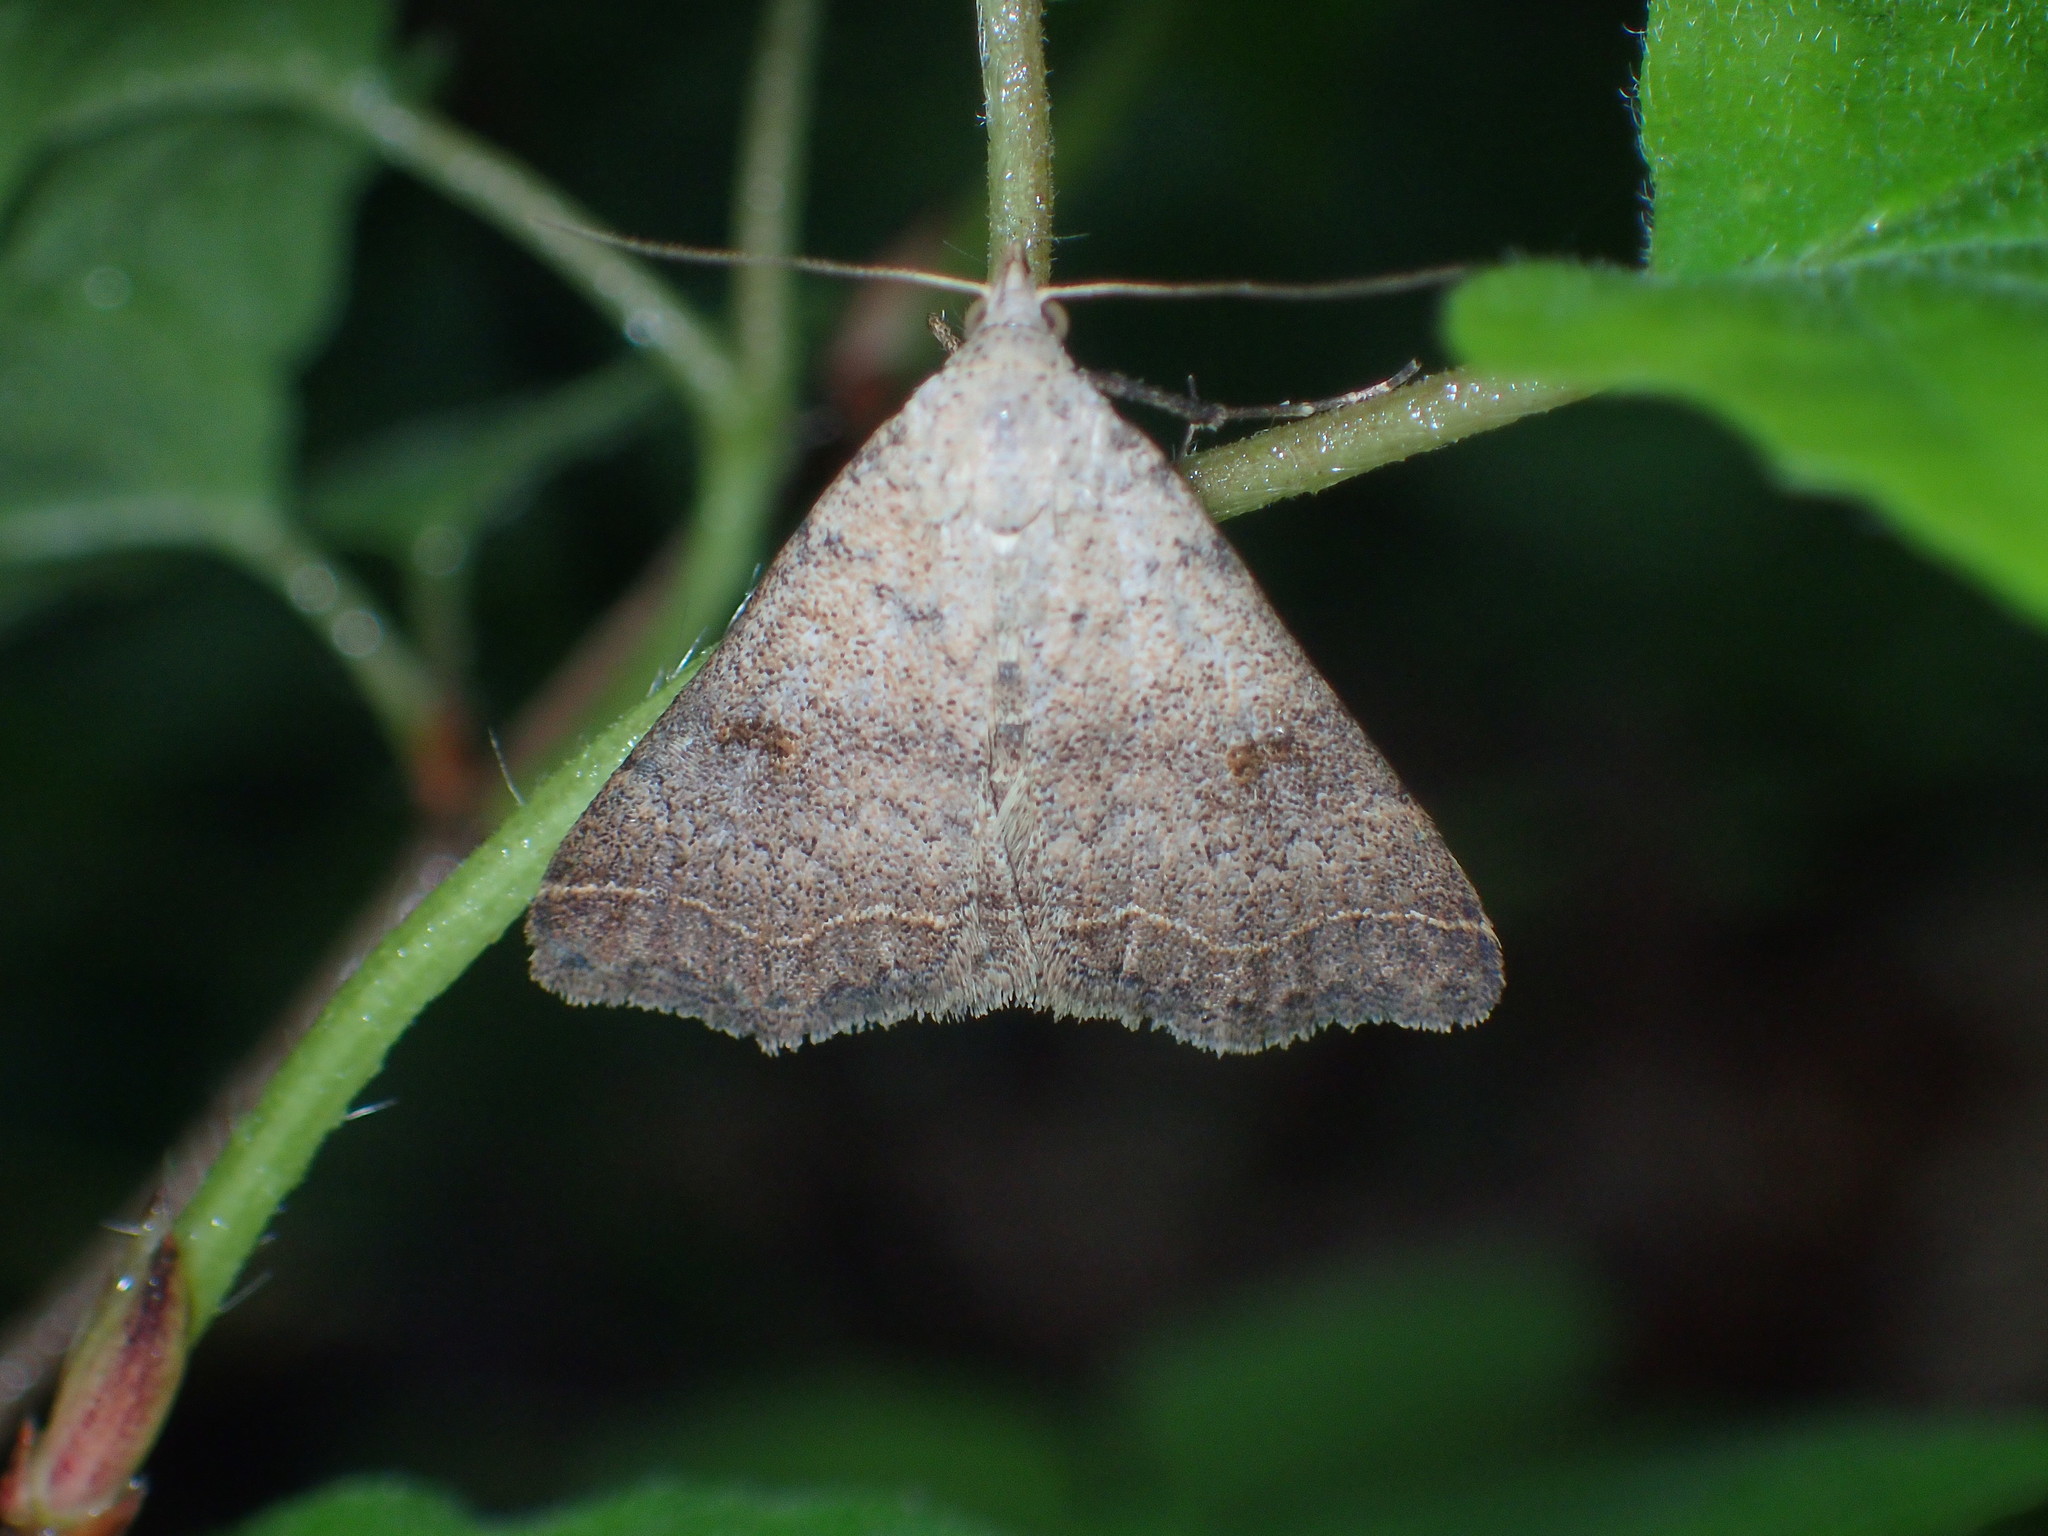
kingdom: Animalia
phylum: Arthropoda
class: Insecta
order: Lepidoptera
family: Erebidae
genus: Bleptina
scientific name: Bleptina caradrinalis
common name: Bent-winged owlet
